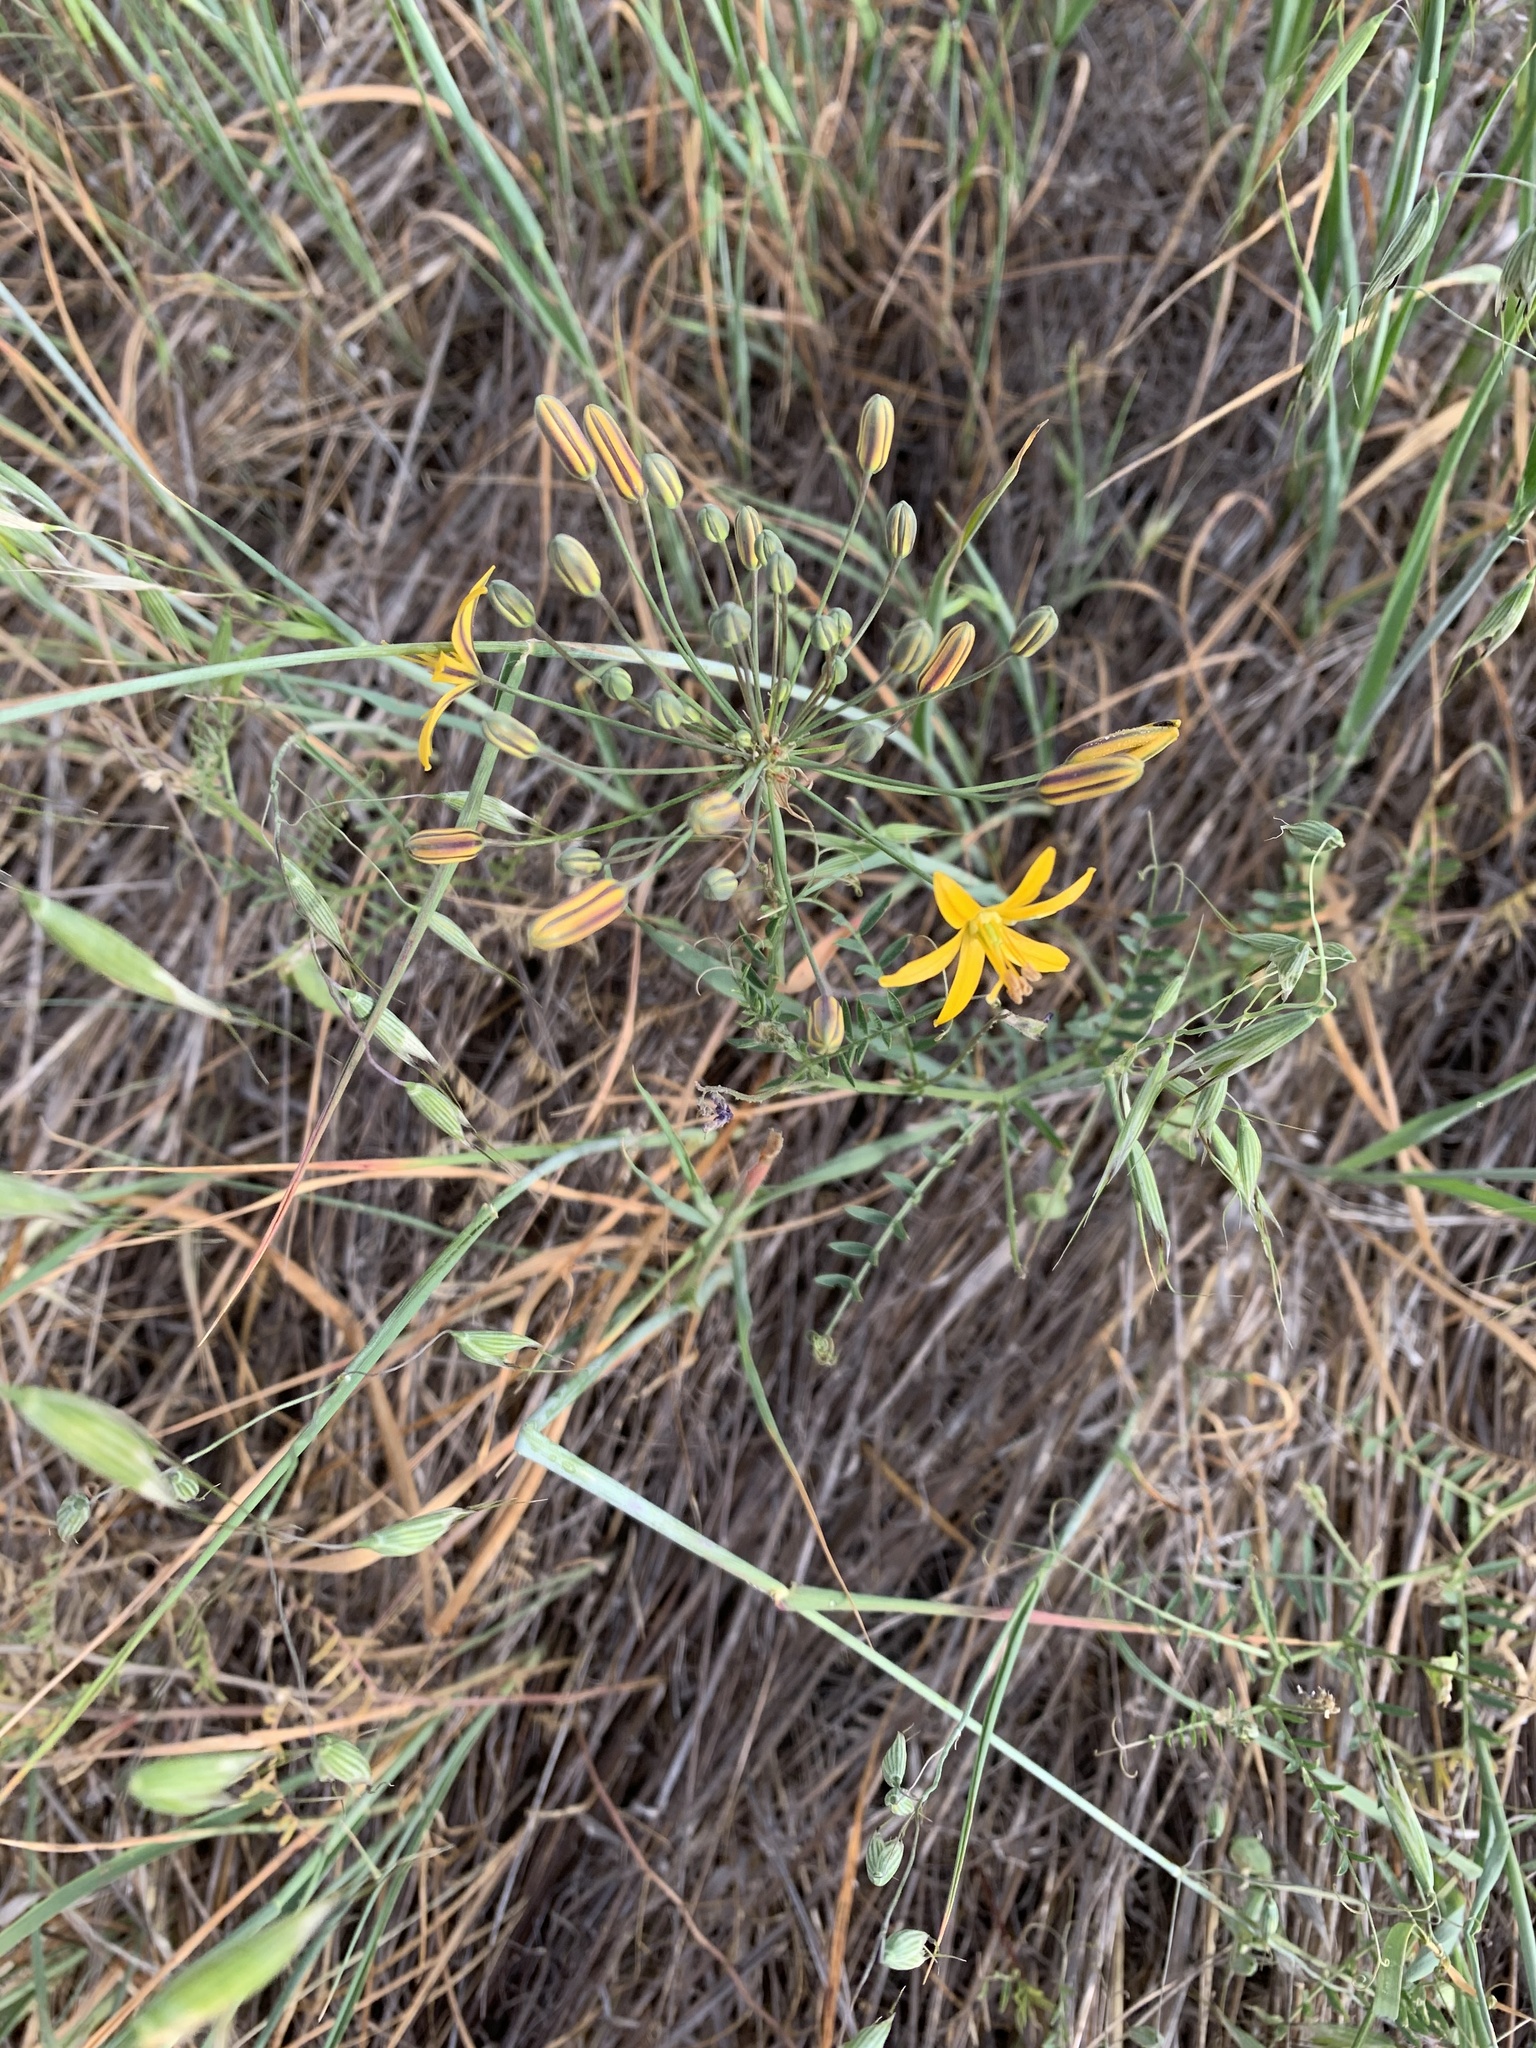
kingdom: Plantae
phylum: Tracheophyta
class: Liliopsida
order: Asparagales
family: Asparagaceae
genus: Bloomeria
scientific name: Bloomeria crocea
